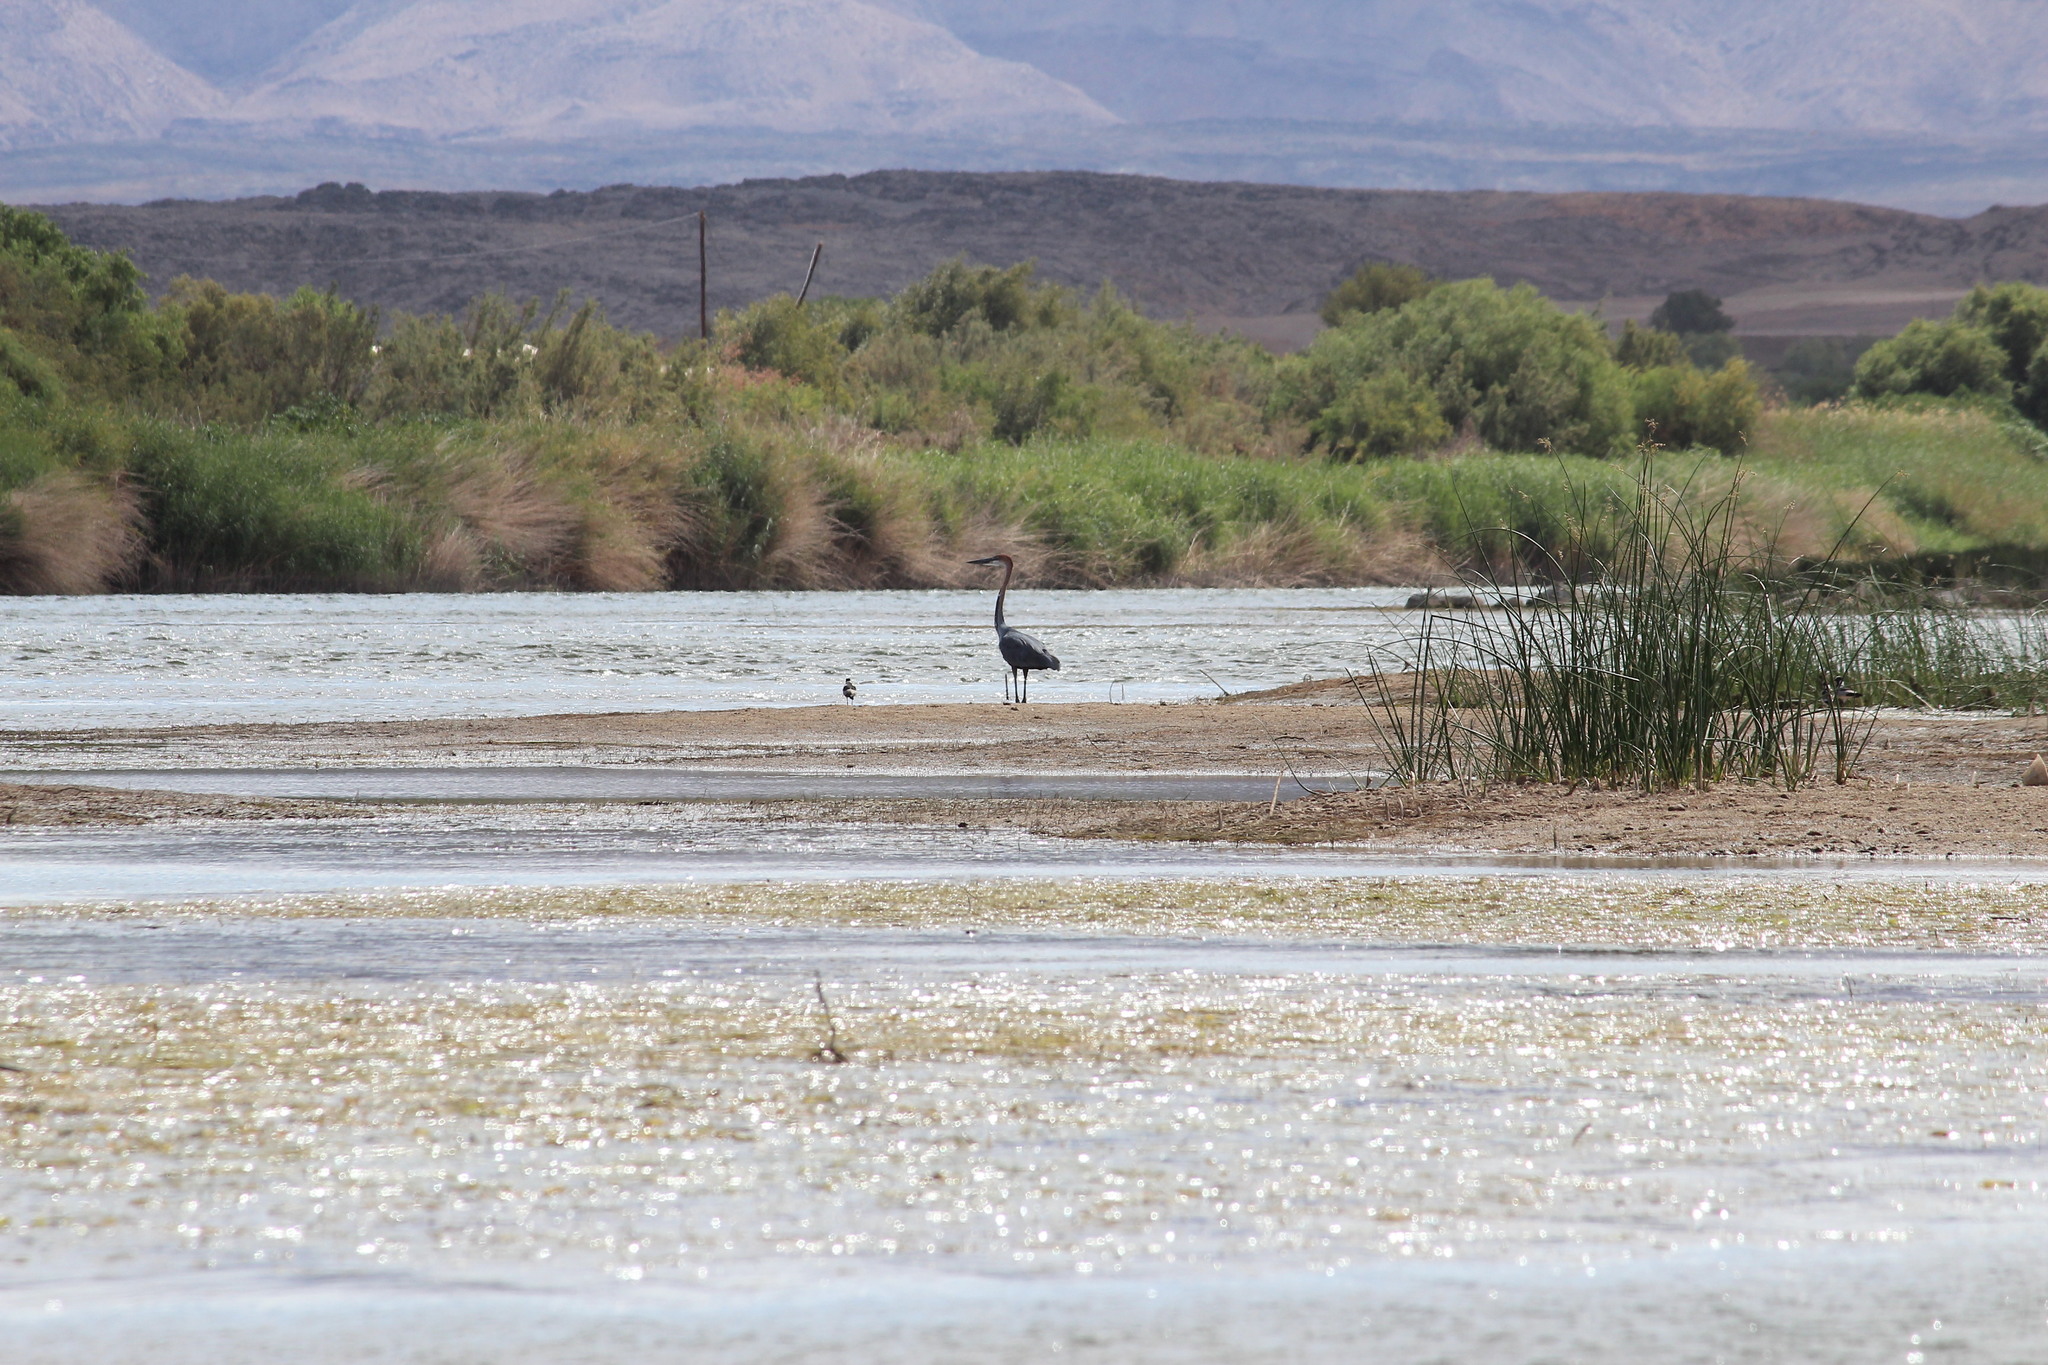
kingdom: Animalia
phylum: Chordata
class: Aves
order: Pelecaniformes
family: Ardeidae
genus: Ardea
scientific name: Ardea goliath
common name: Goliath heron
